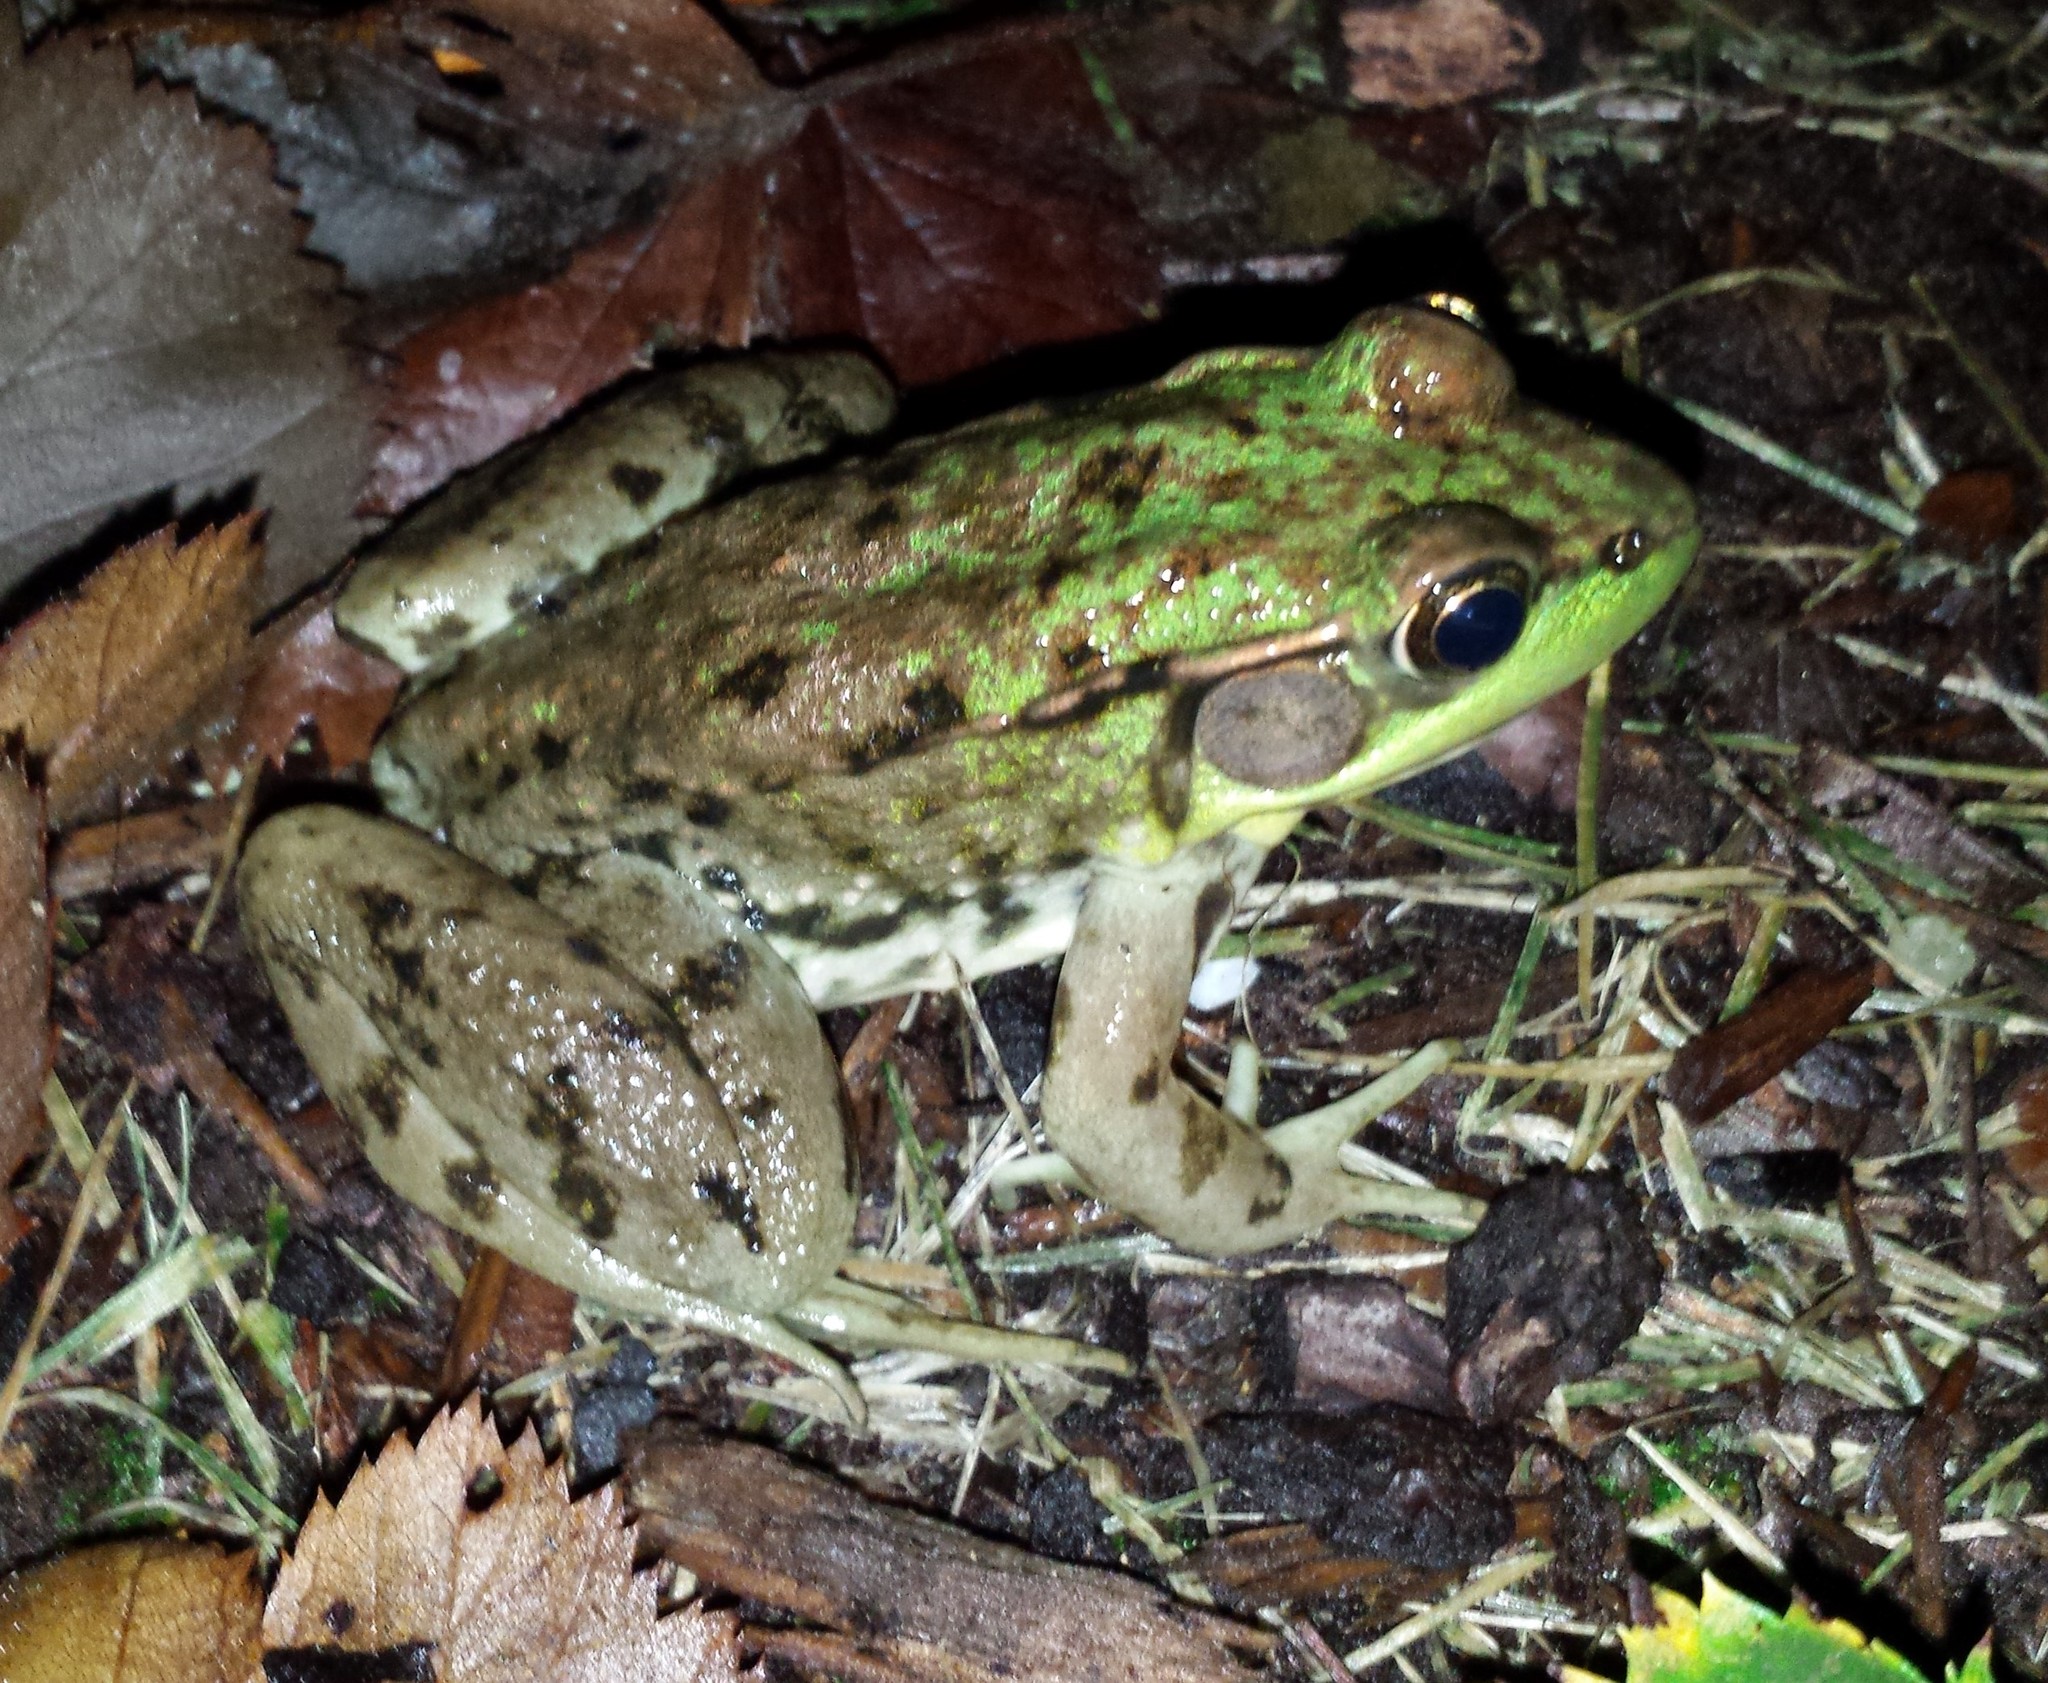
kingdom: Animalia
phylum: Chordata
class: Amphibia
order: Anura
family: Ranidae
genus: Lithobates
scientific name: Lithobates clamitans
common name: Green frog
